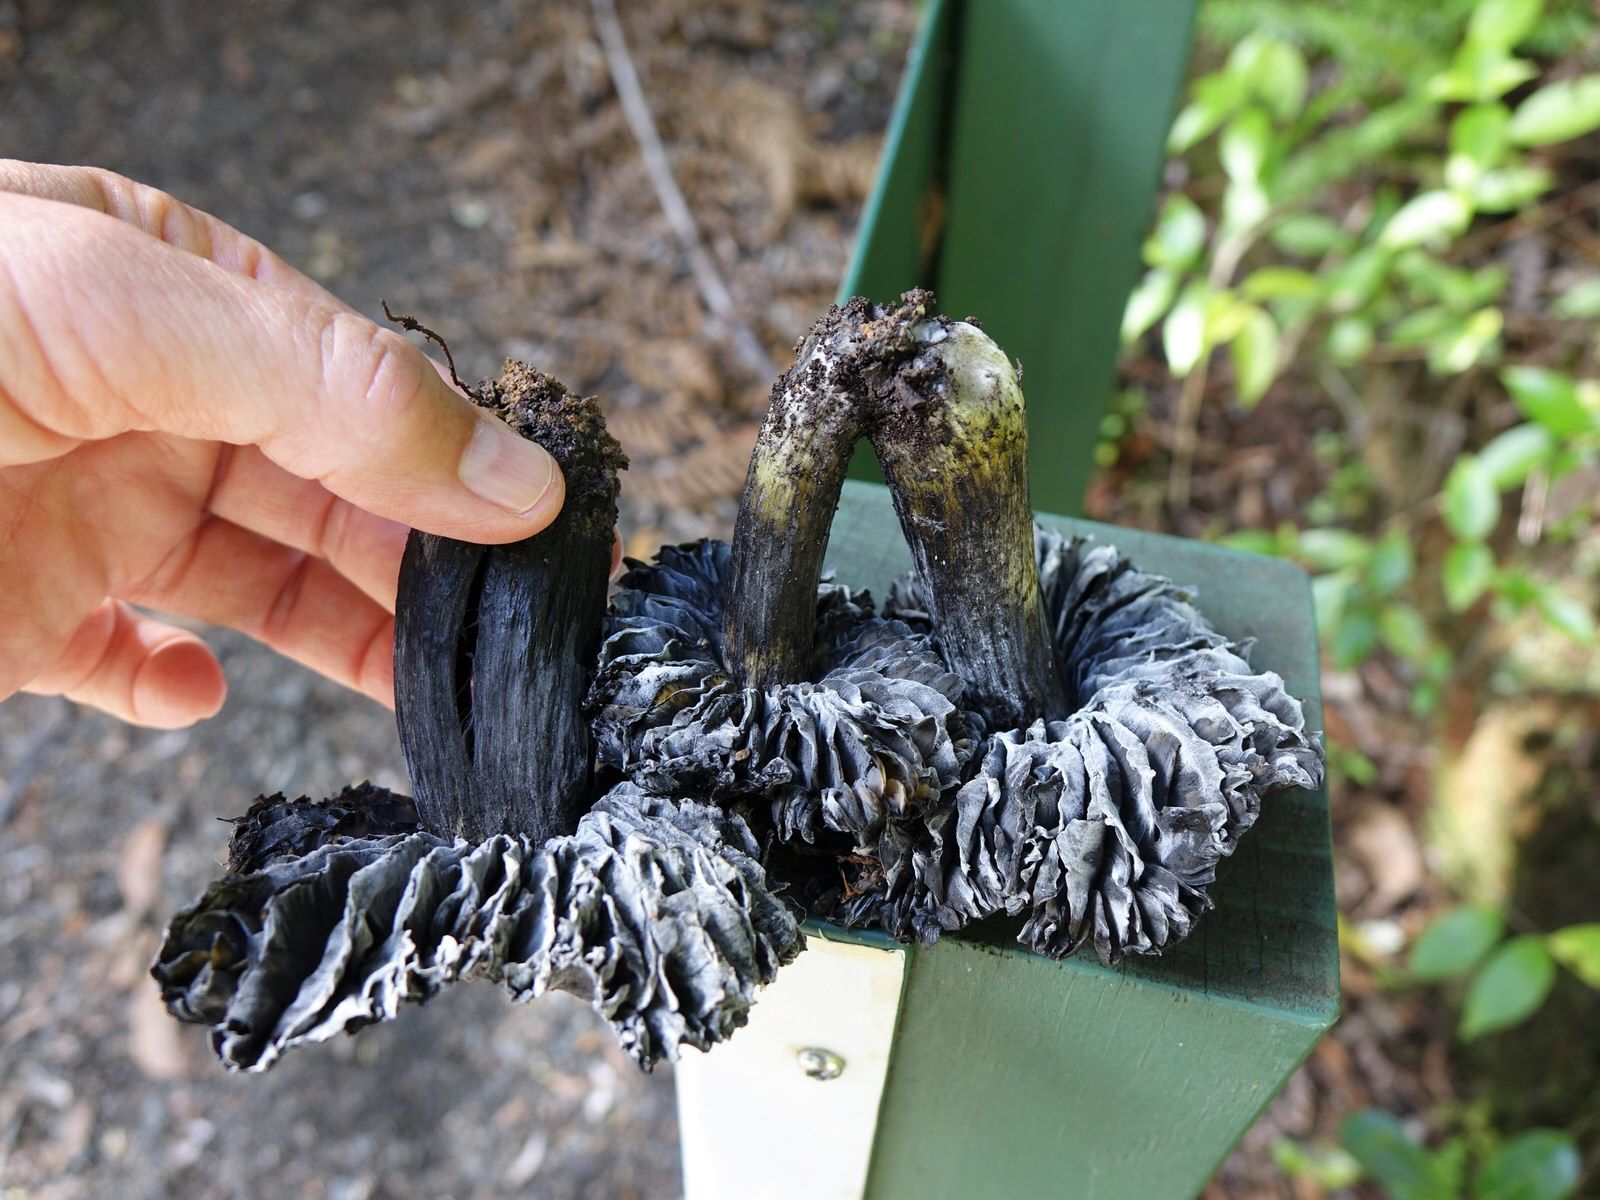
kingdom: Fungi
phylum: Basidiomycota
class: Agaricomycetes
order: Agaricales
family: Hygrophoraceae
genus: Hygrocybe
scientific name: Hygrocybe astatogala
